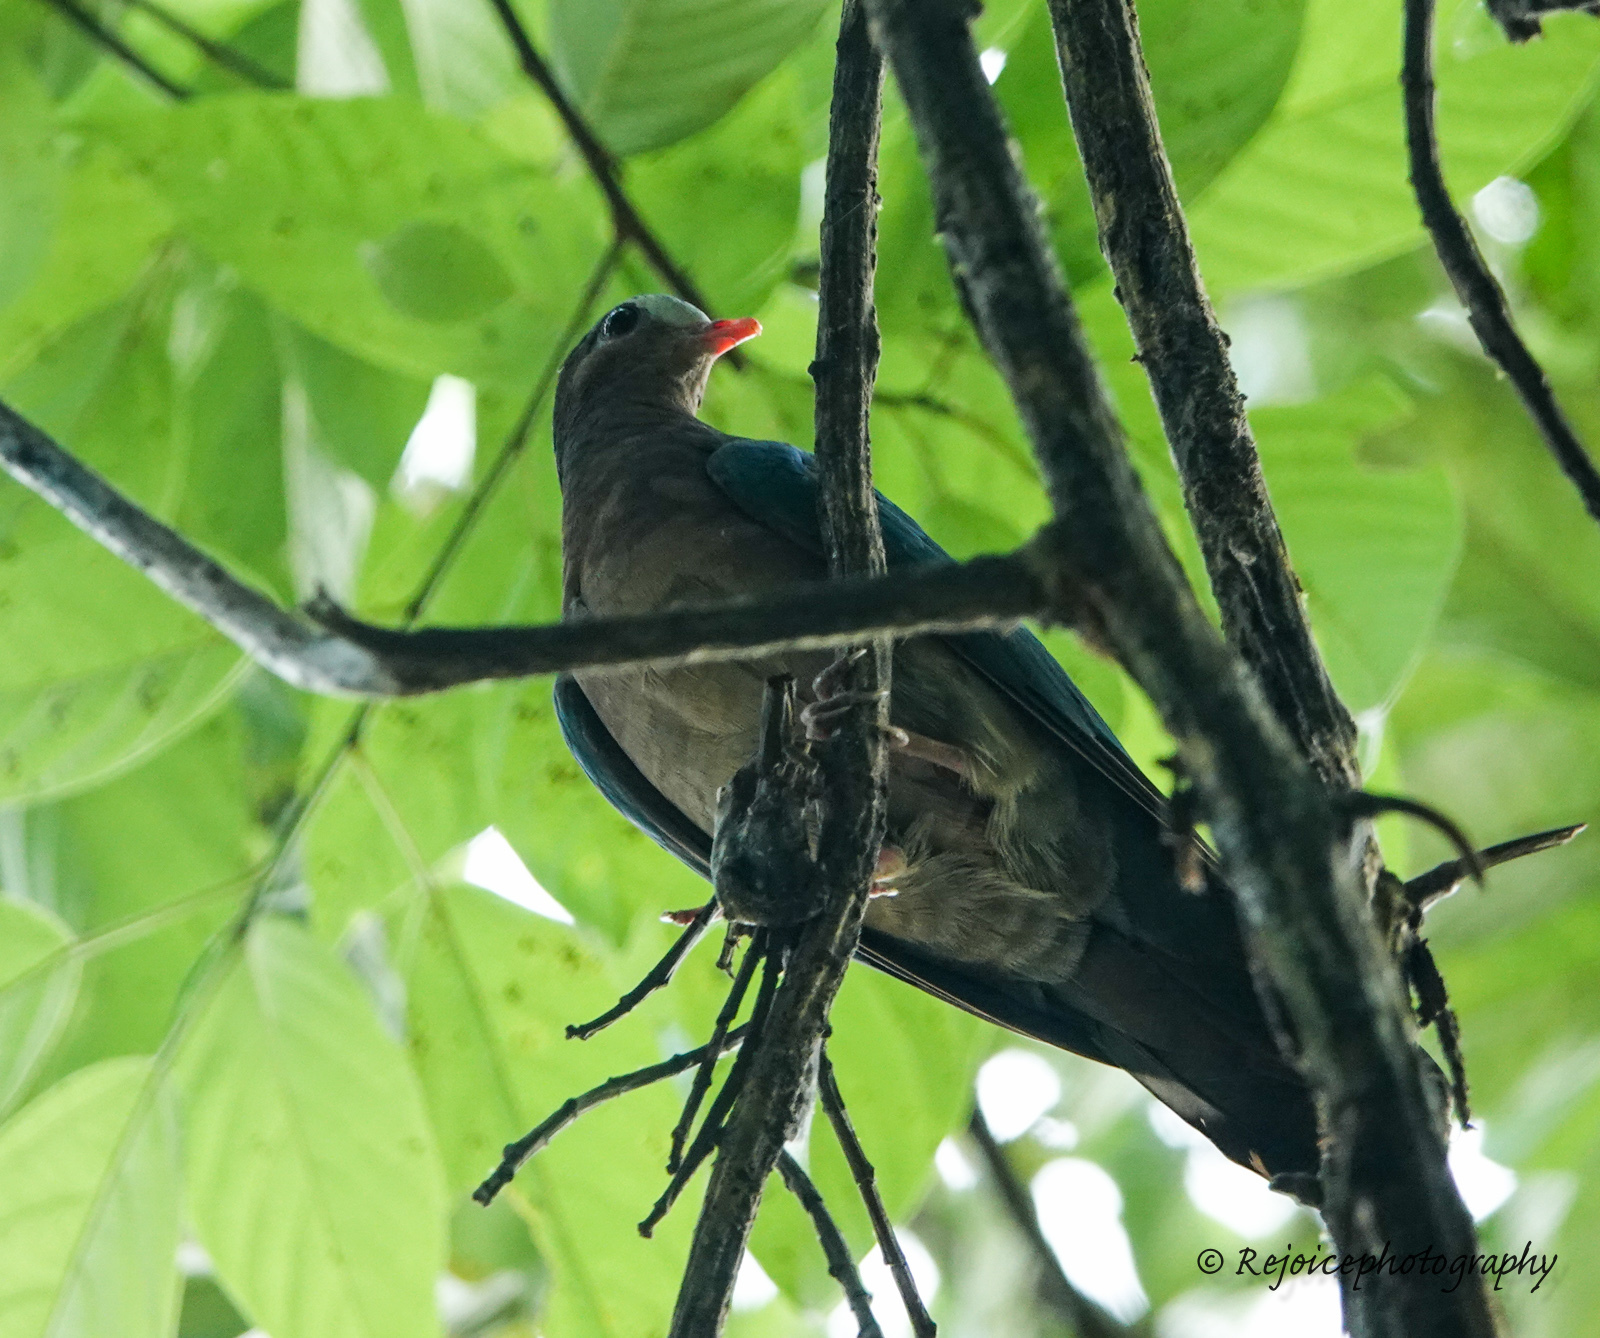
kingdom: Animalia
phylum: Chordata
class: Aves
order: Columbiformes
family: Columbidae
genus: Chalcophaps
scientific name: Chalcophaps indica
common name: Common emerald dove
